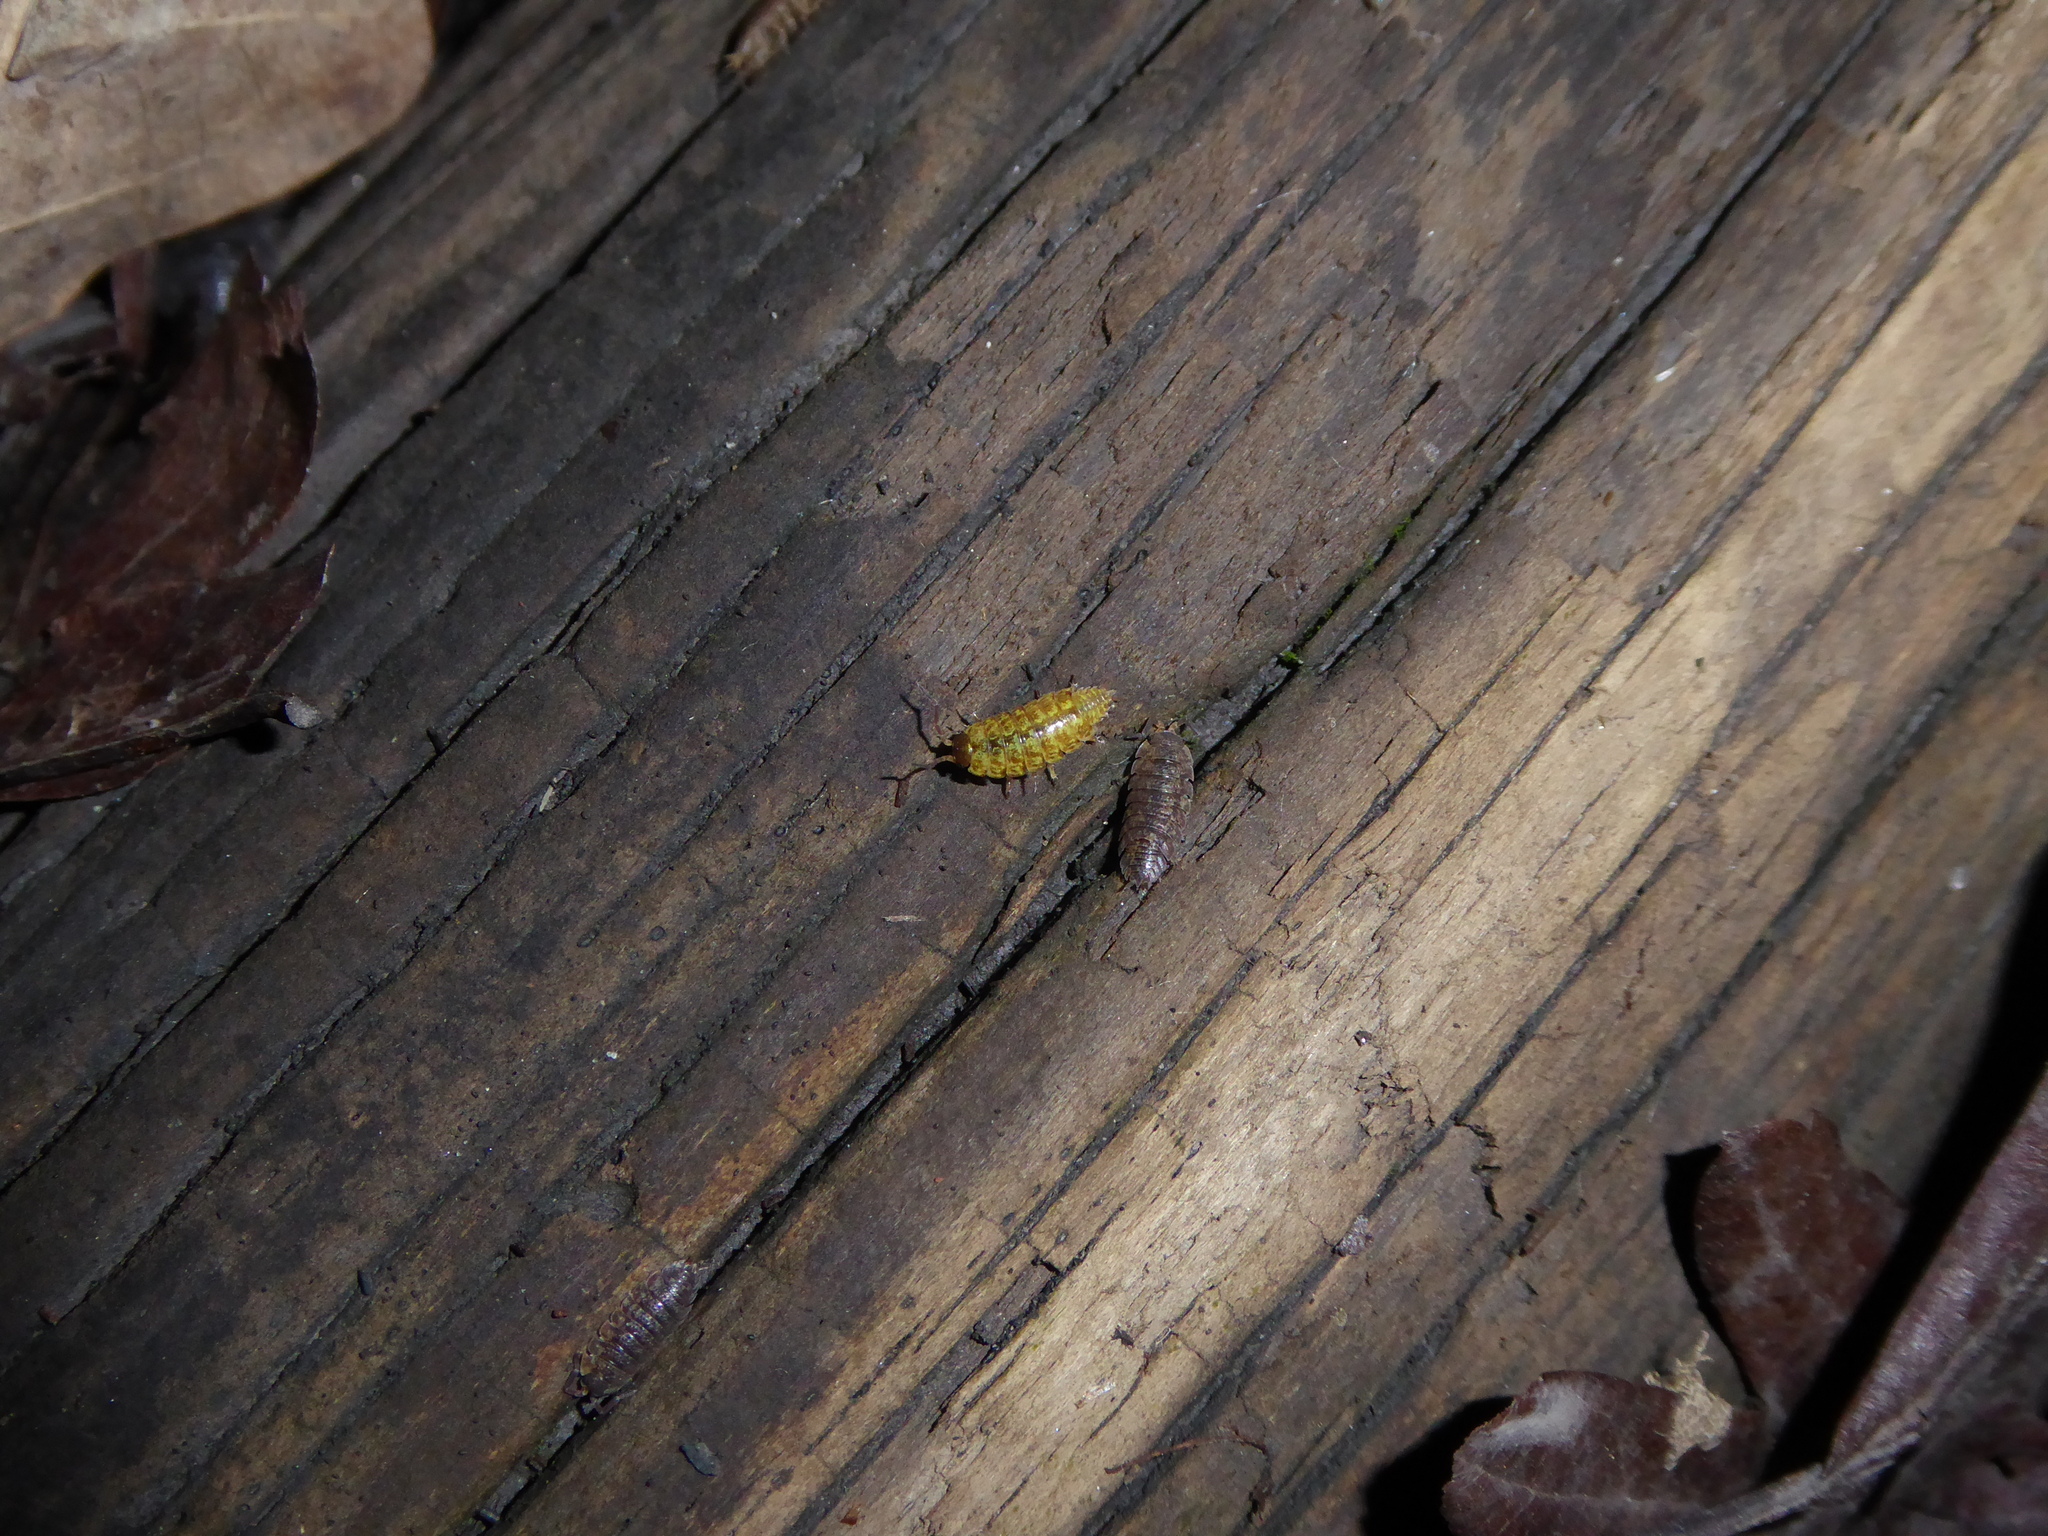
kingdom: Animalia
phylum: Arthropoda
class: Malacostraca
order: Isopoda
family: Porcellionidae
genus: Porcellio
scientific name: Porcellio scaber
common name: Common rough woodlouse
